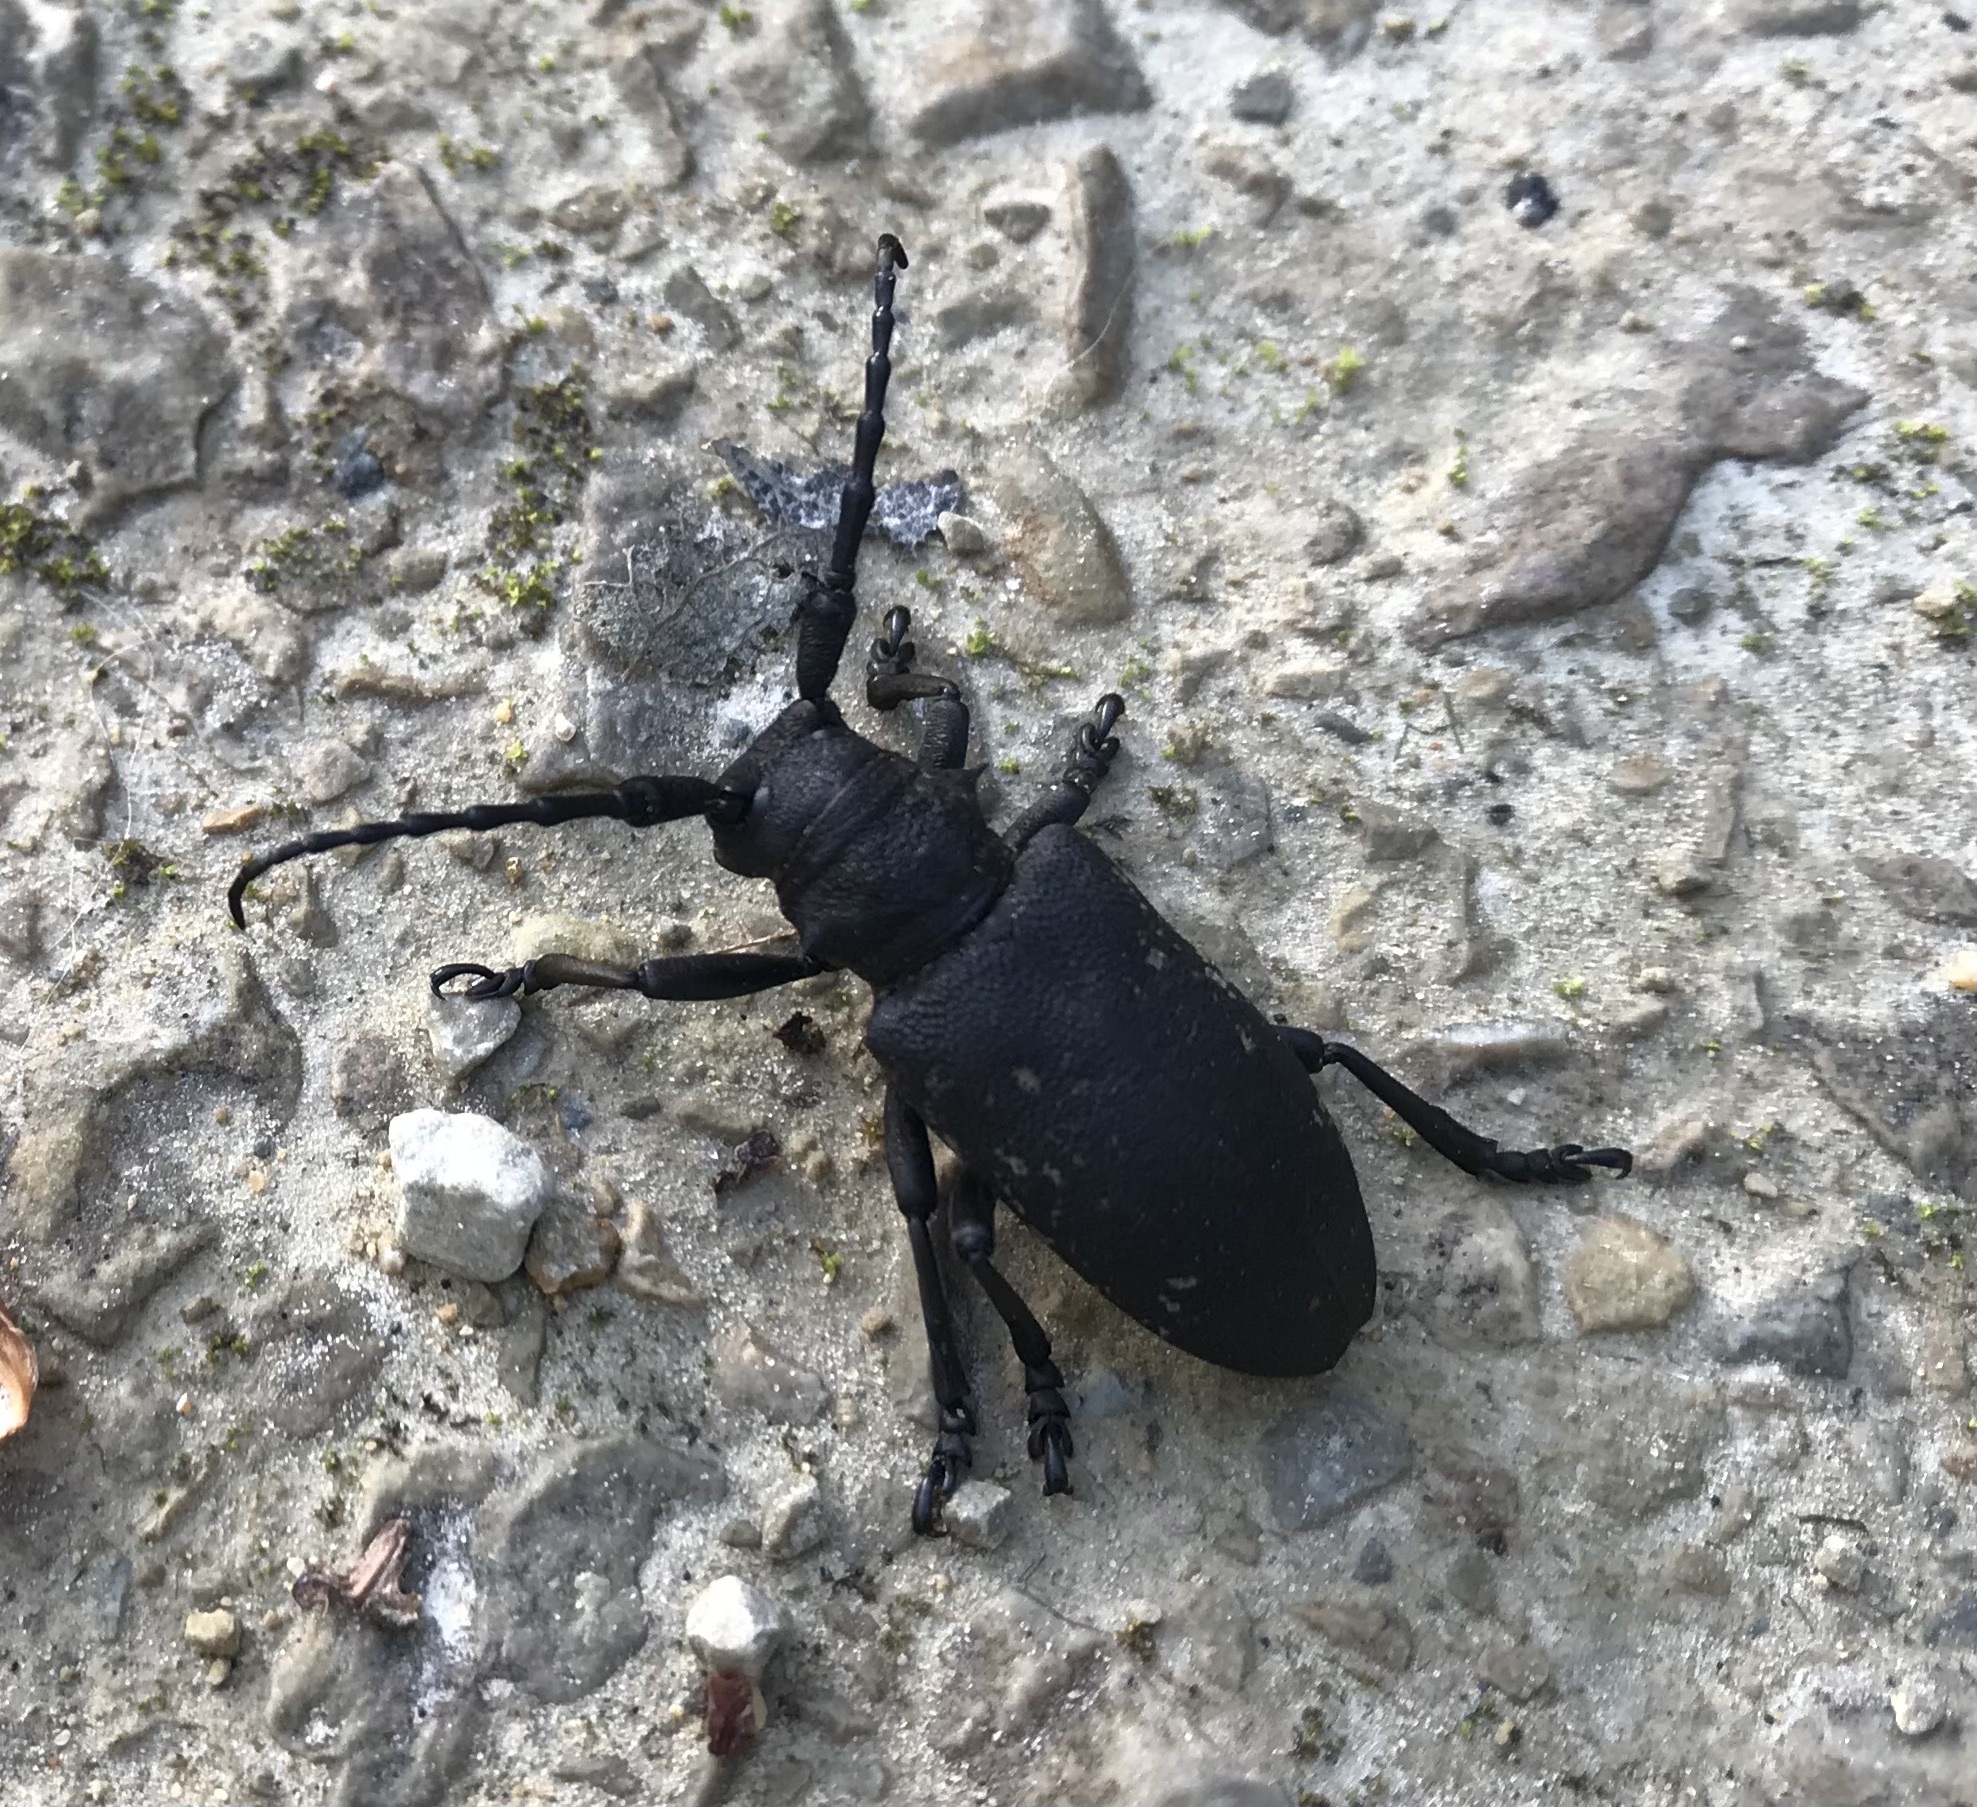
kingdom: Animalia
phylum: Arthropoda
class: Insecta
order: Coleoptera
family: Cerambycidae
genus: Lamia
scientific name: Lamia textor
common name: Weaver beetle
